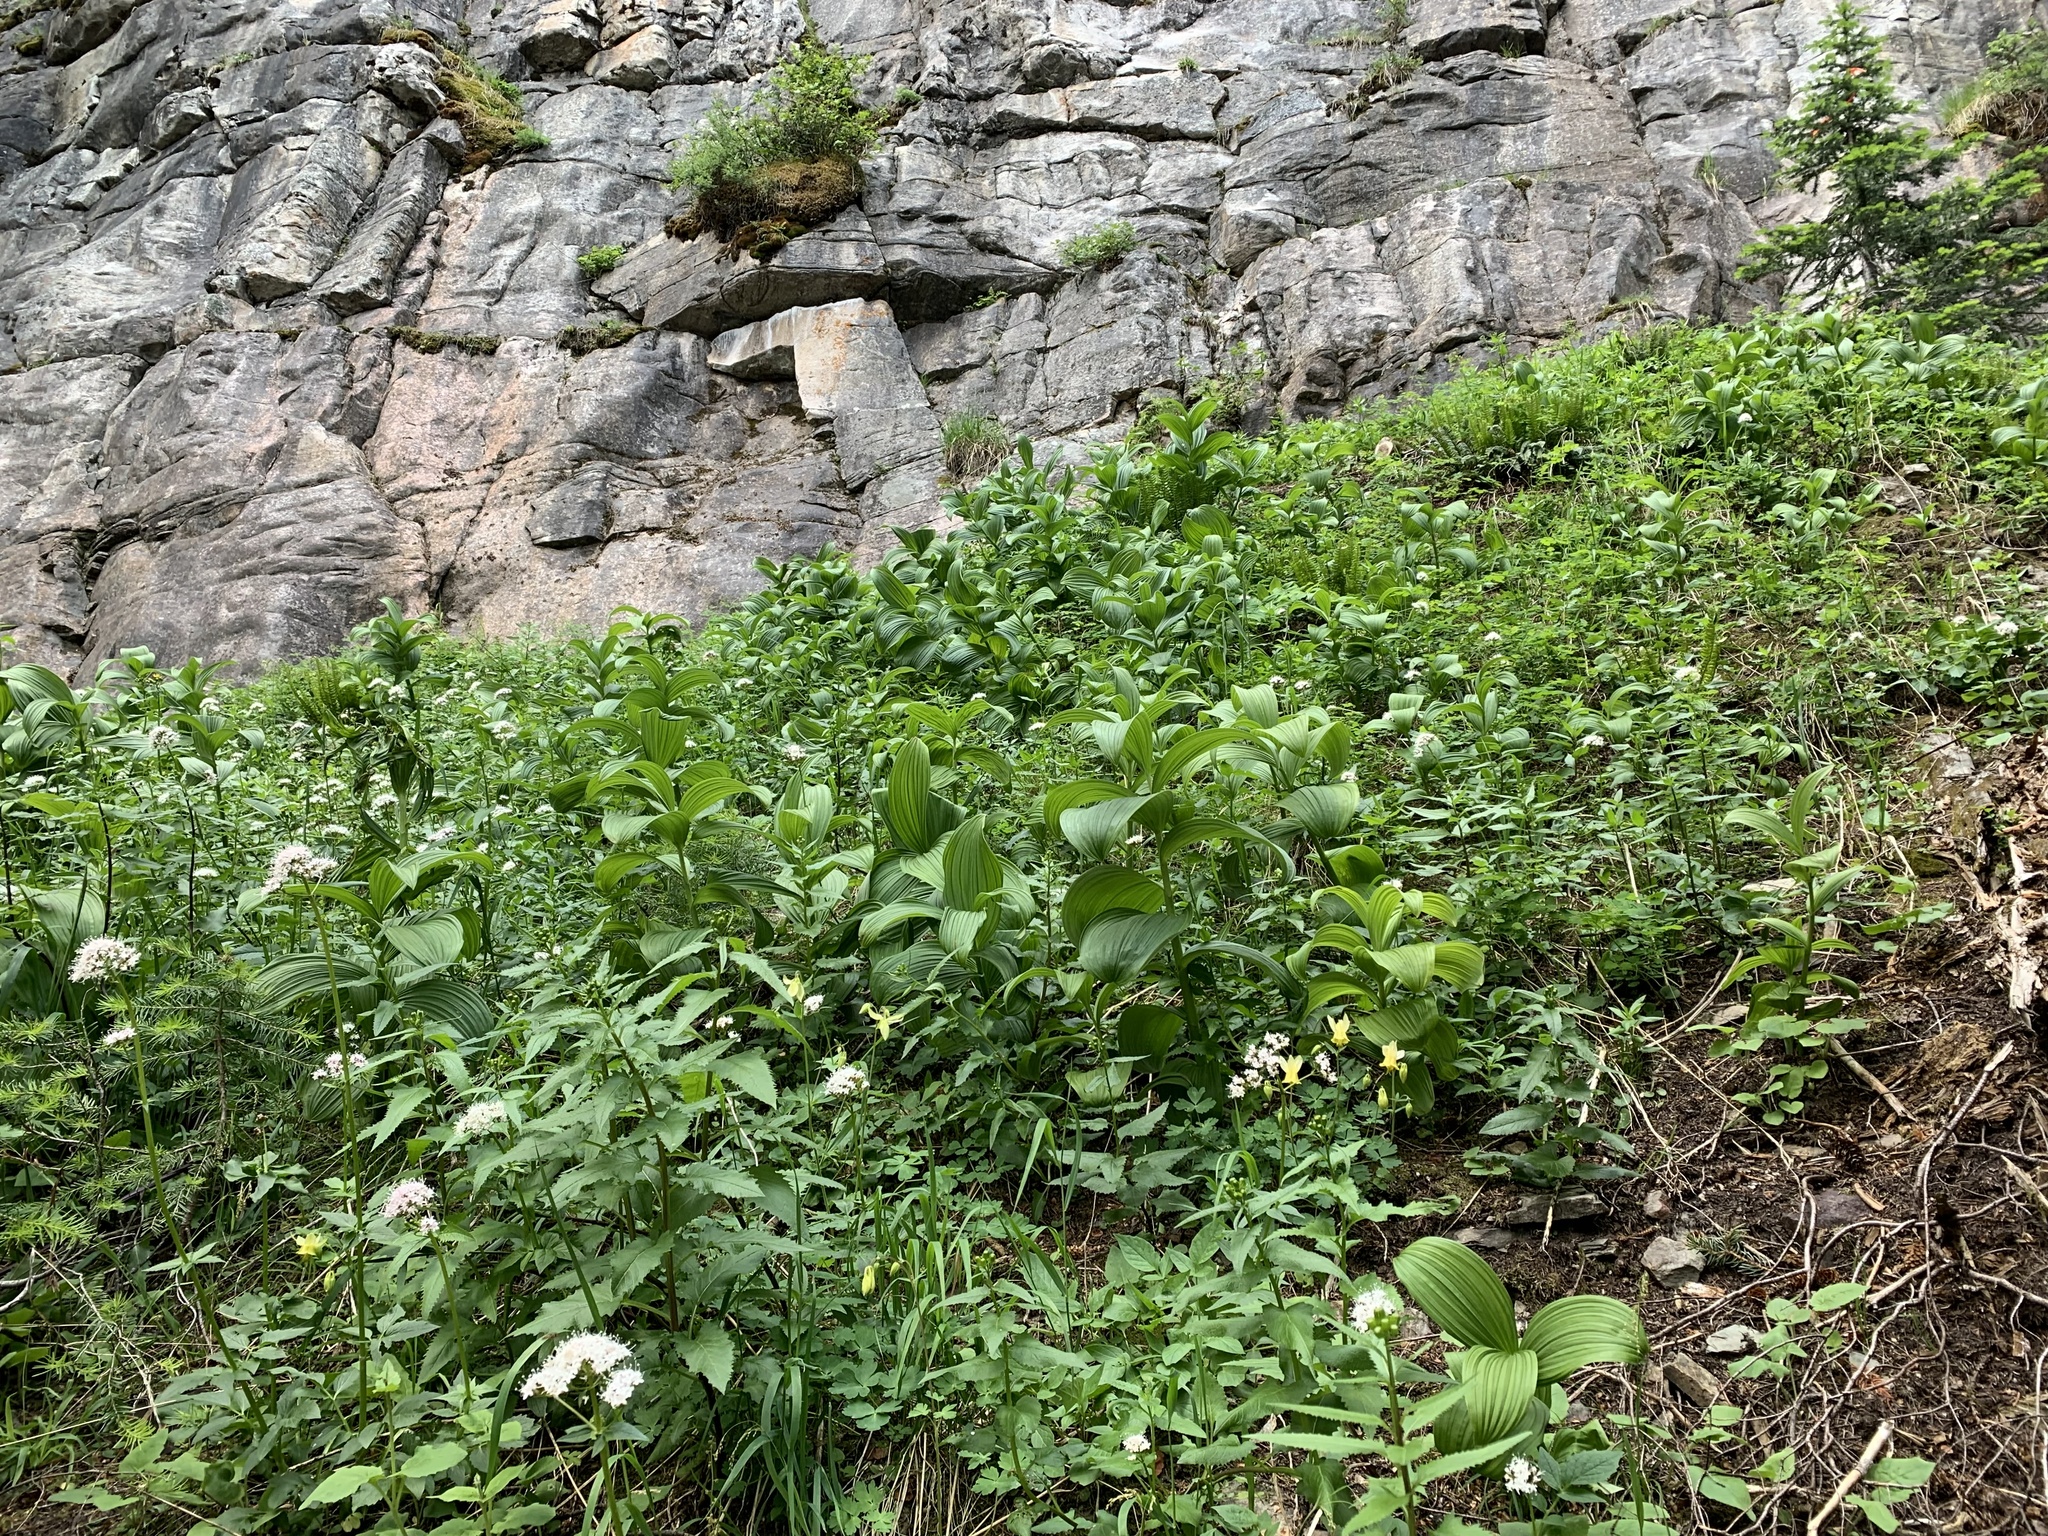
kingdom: Plantae
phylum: Tracheophyta
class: Liliopsida
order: Liliales
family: Melanthiaceae
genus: Veratrum
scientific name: Veratrum viride
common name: American false hellebore
